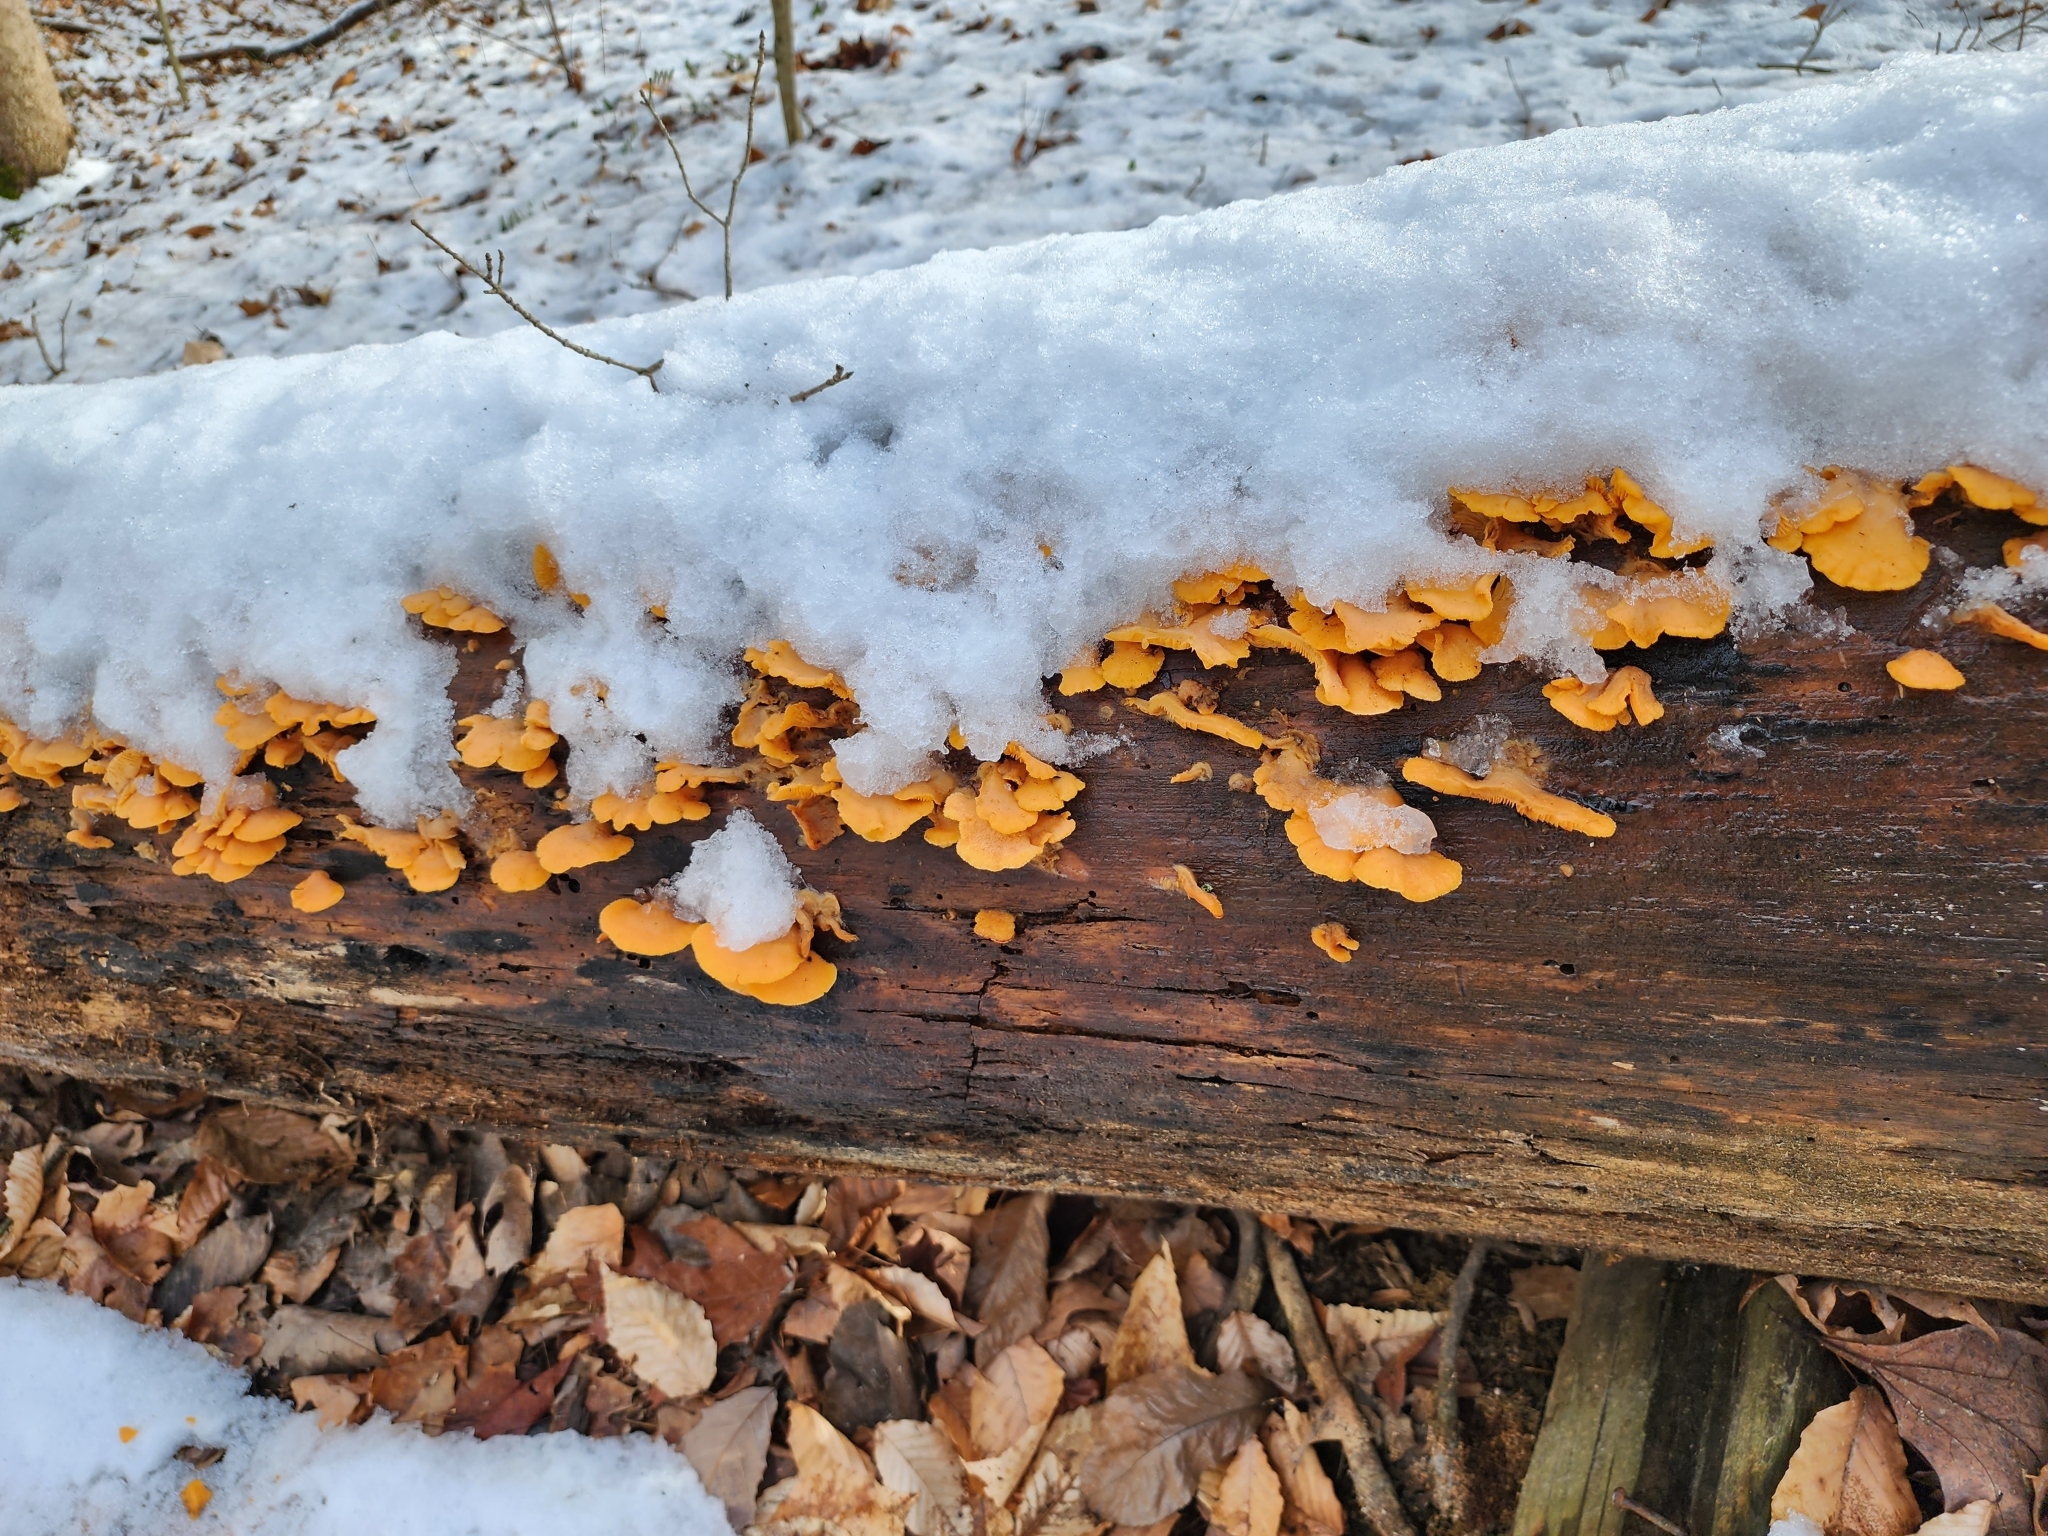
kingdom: Fungi
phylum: Basidiomycota
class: Agaricomycetes
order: Agaricales
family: Phyllotopsidaceae
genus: Phyllotopsis
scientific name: Phyllotopsis nidulans
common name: Orange mock oyster
